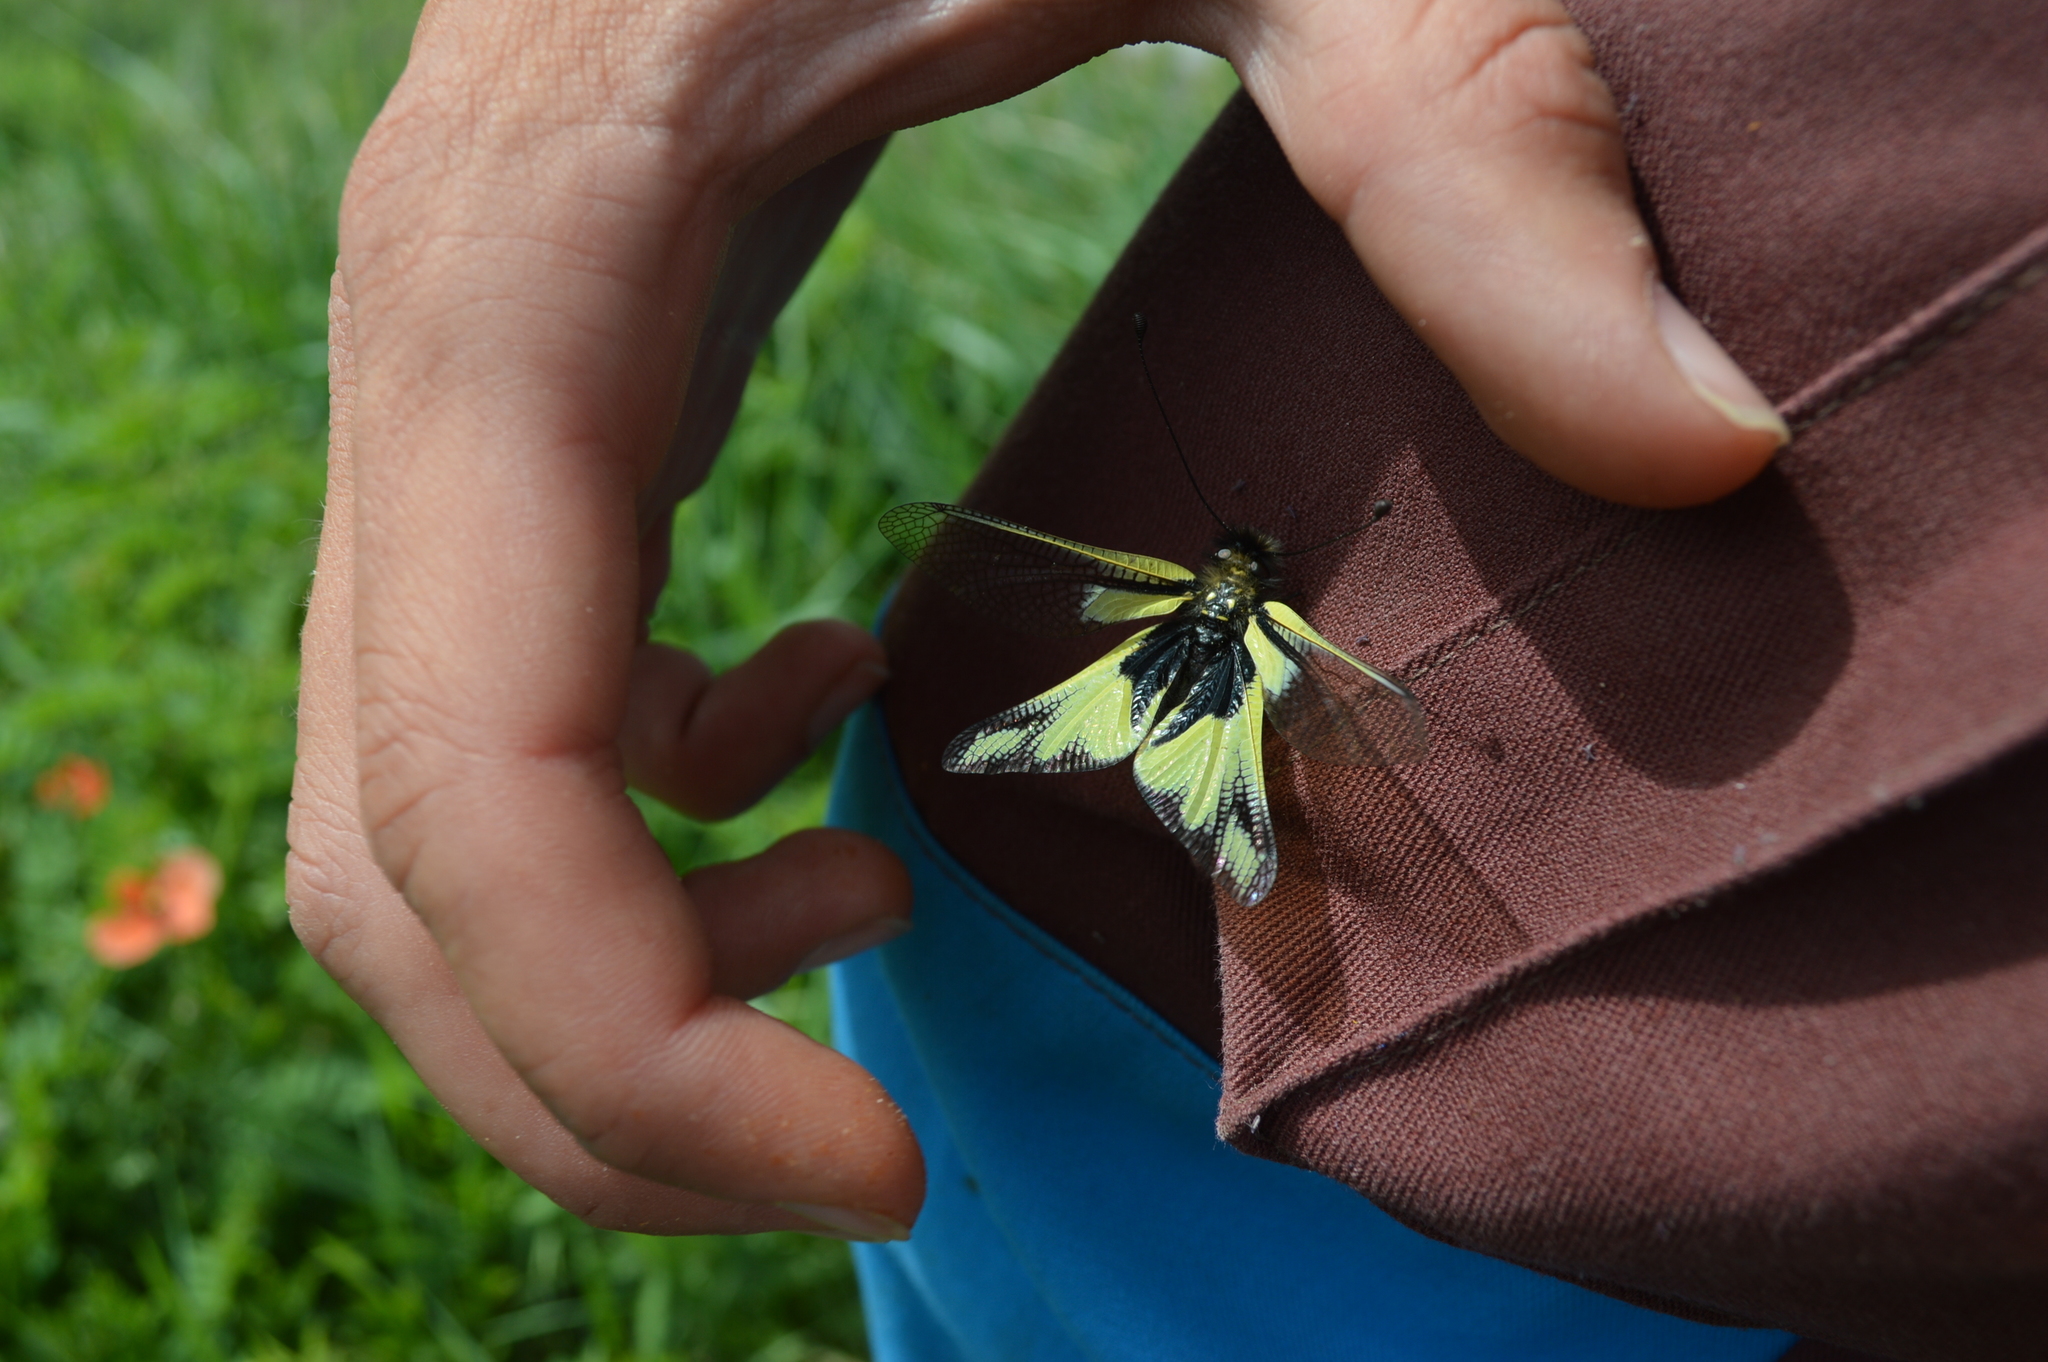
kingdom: Animalia
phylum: Arthropoda
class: Insecta
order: Neuroptera
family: Ascalaphidae
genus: Libelloides
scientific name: Libelloides coccajus
